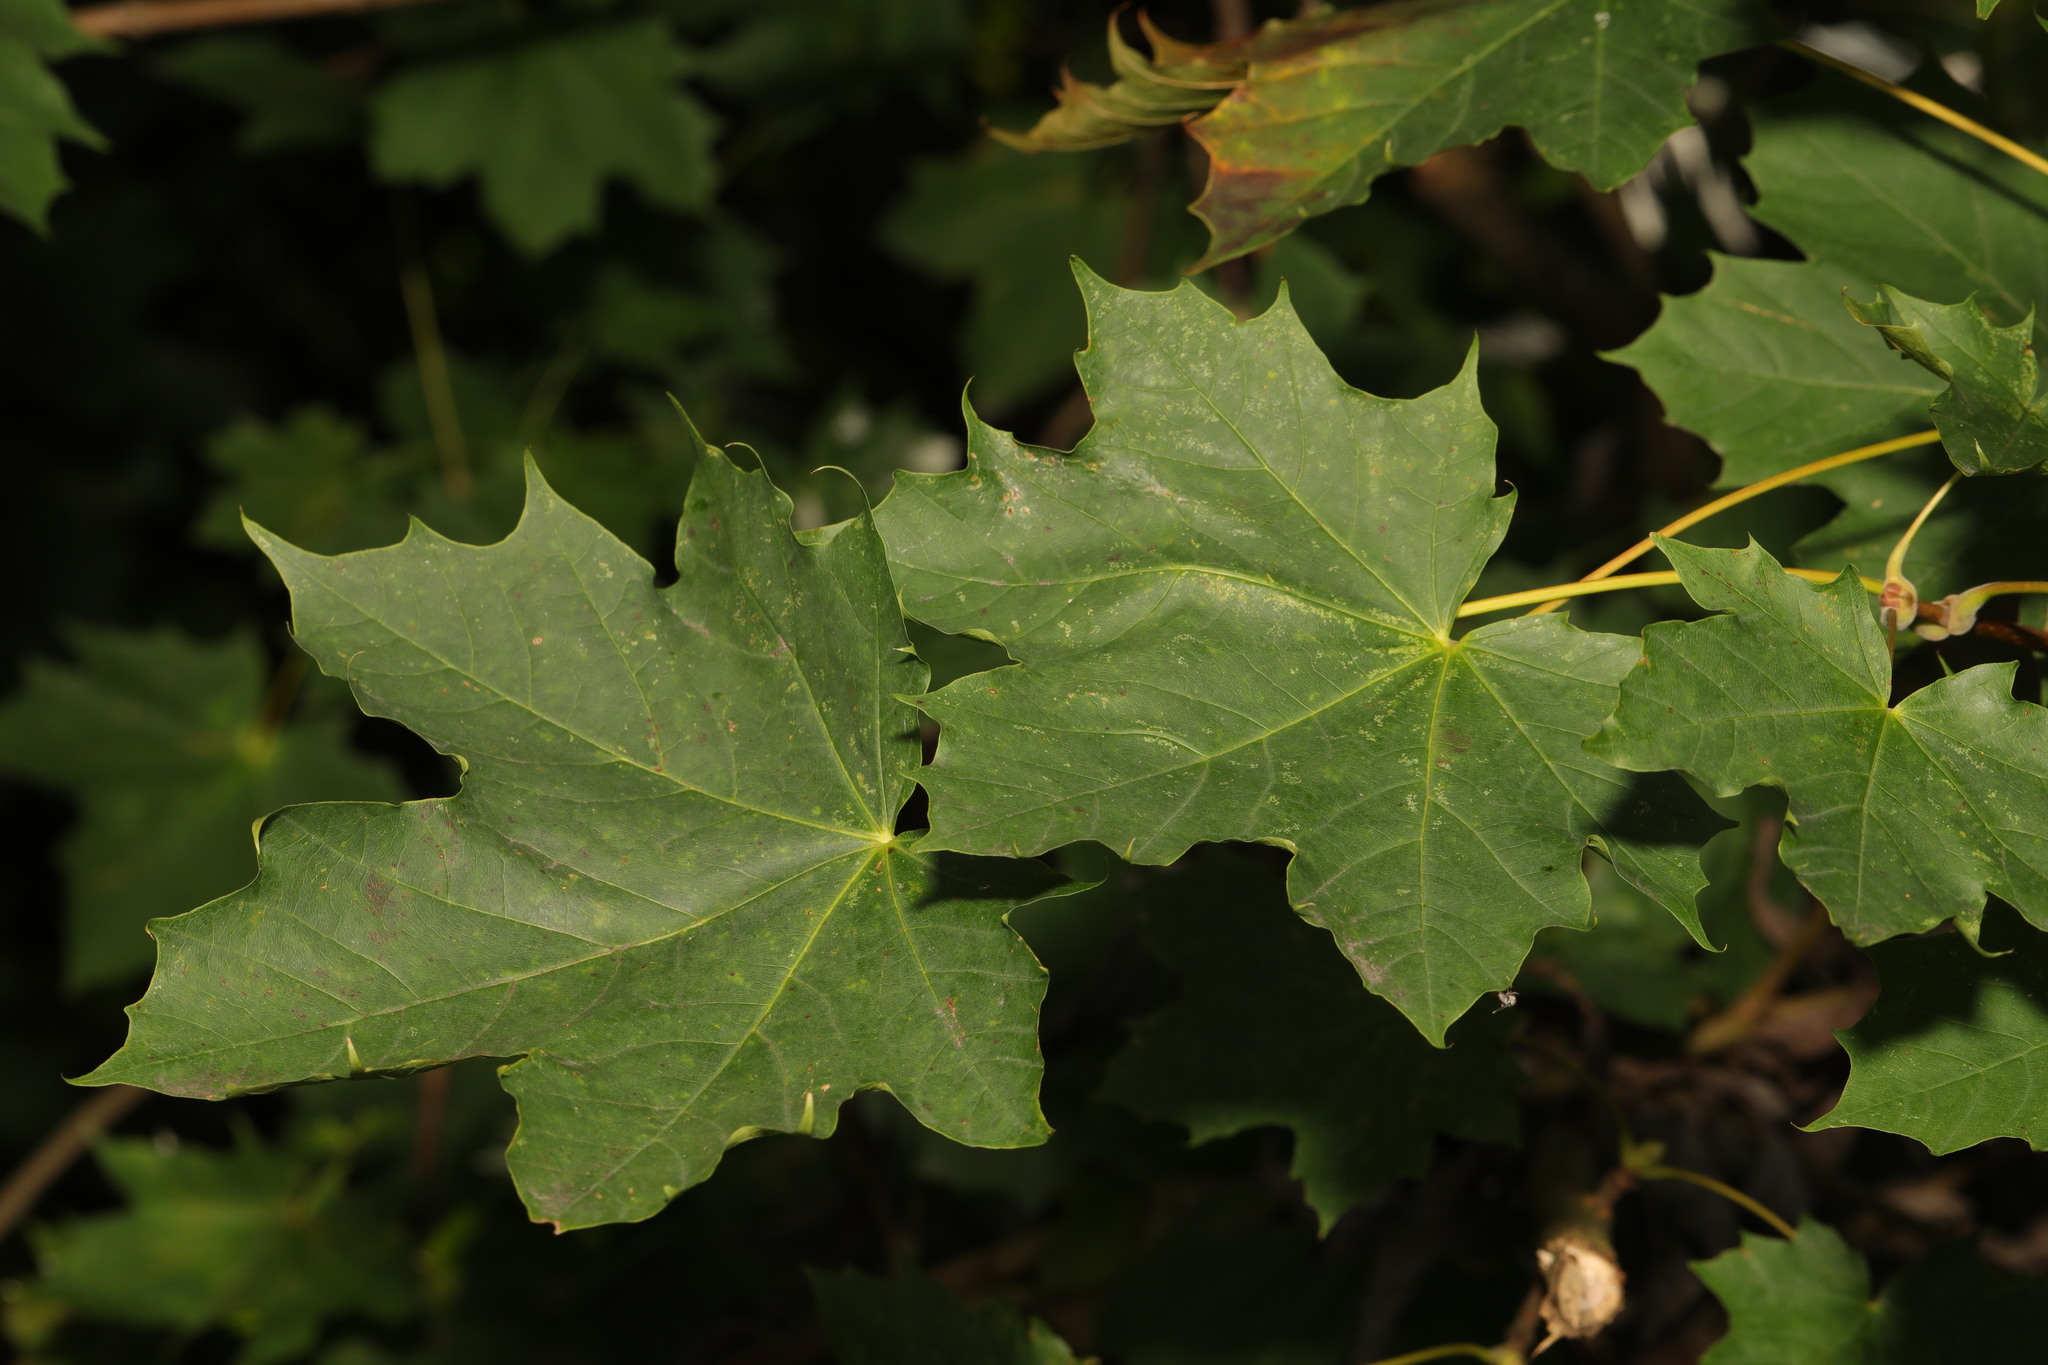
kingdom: Plantae
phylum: Tracheophyta
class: Magnoliopsida
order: Sapindales
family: Sapindaceae
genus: Acer
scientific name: Acer platanoides
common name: Norway maple
